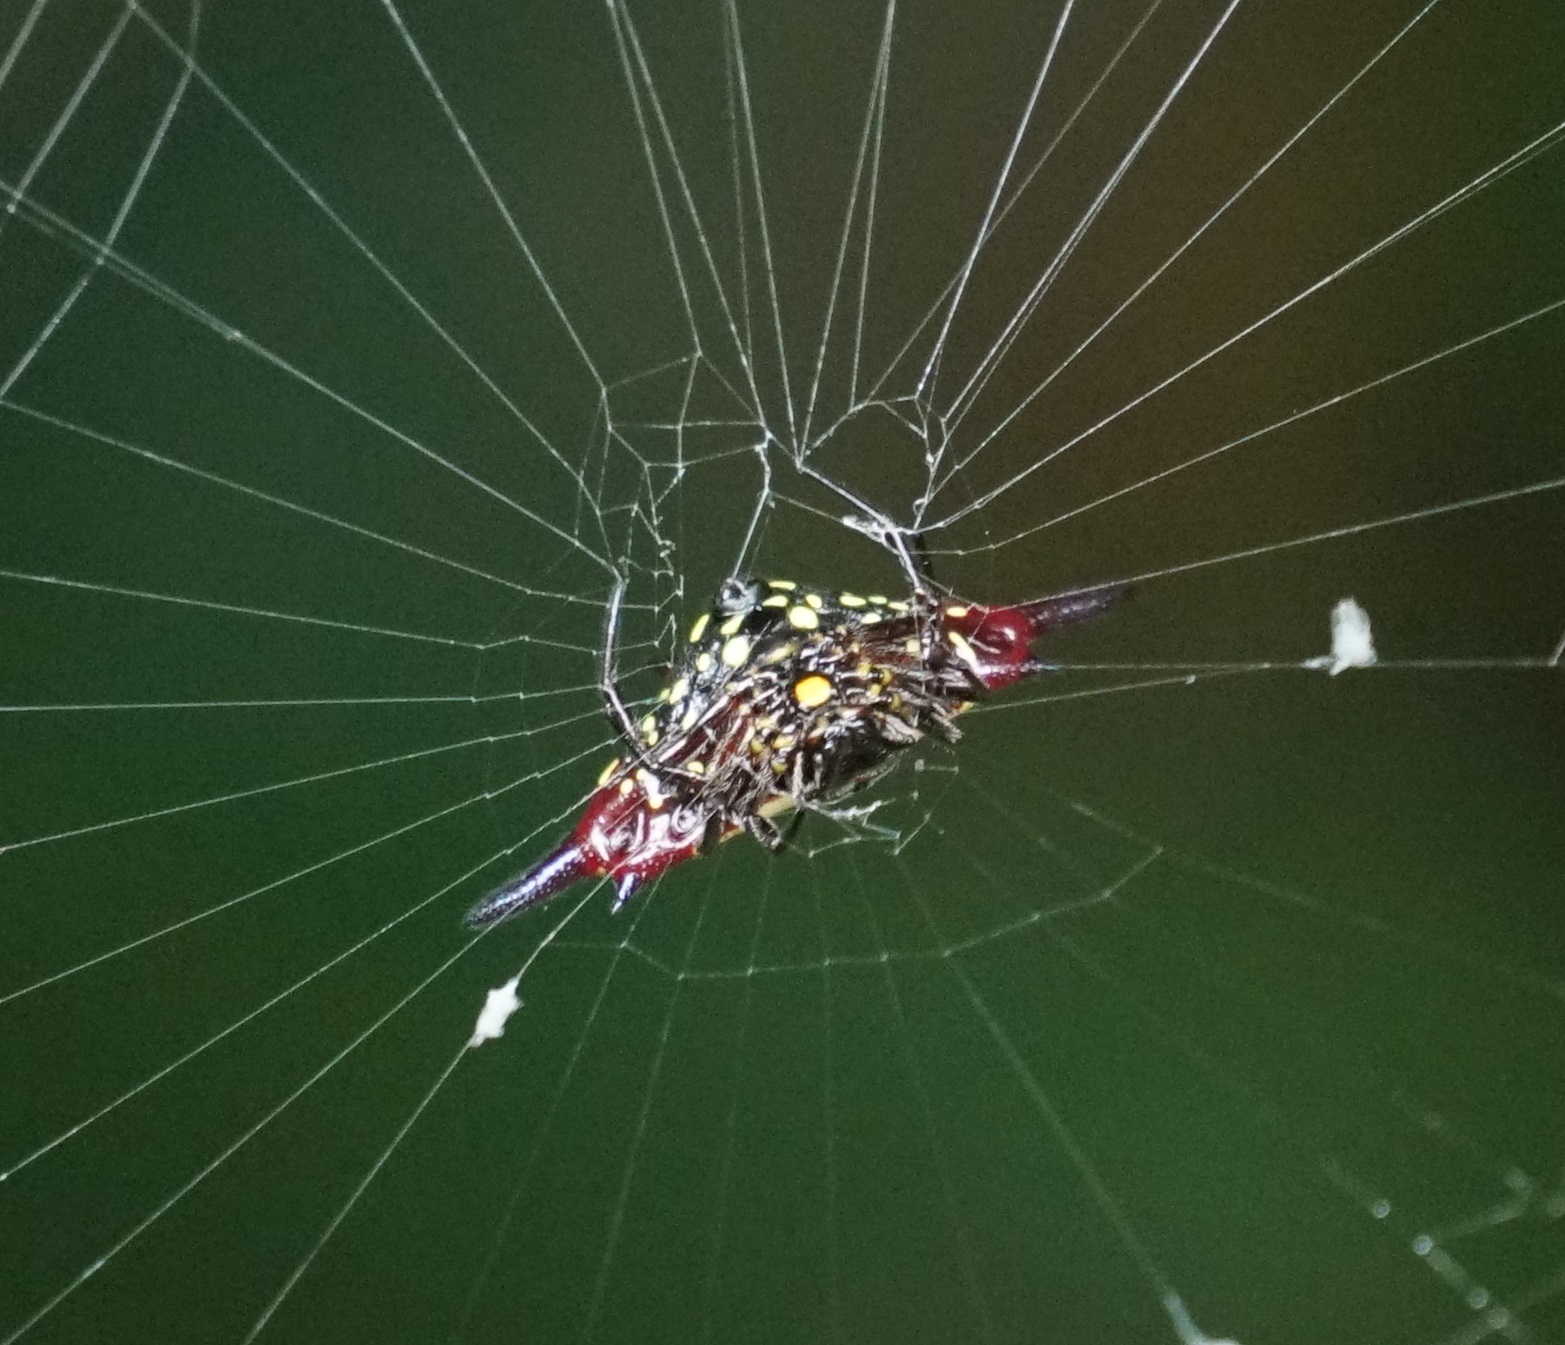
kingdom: Animalia
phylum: Arthropoda
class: Arachnida
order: Araneae
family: Araneidae
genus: Gasteracantha
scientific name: Gasteracantha fornicata
